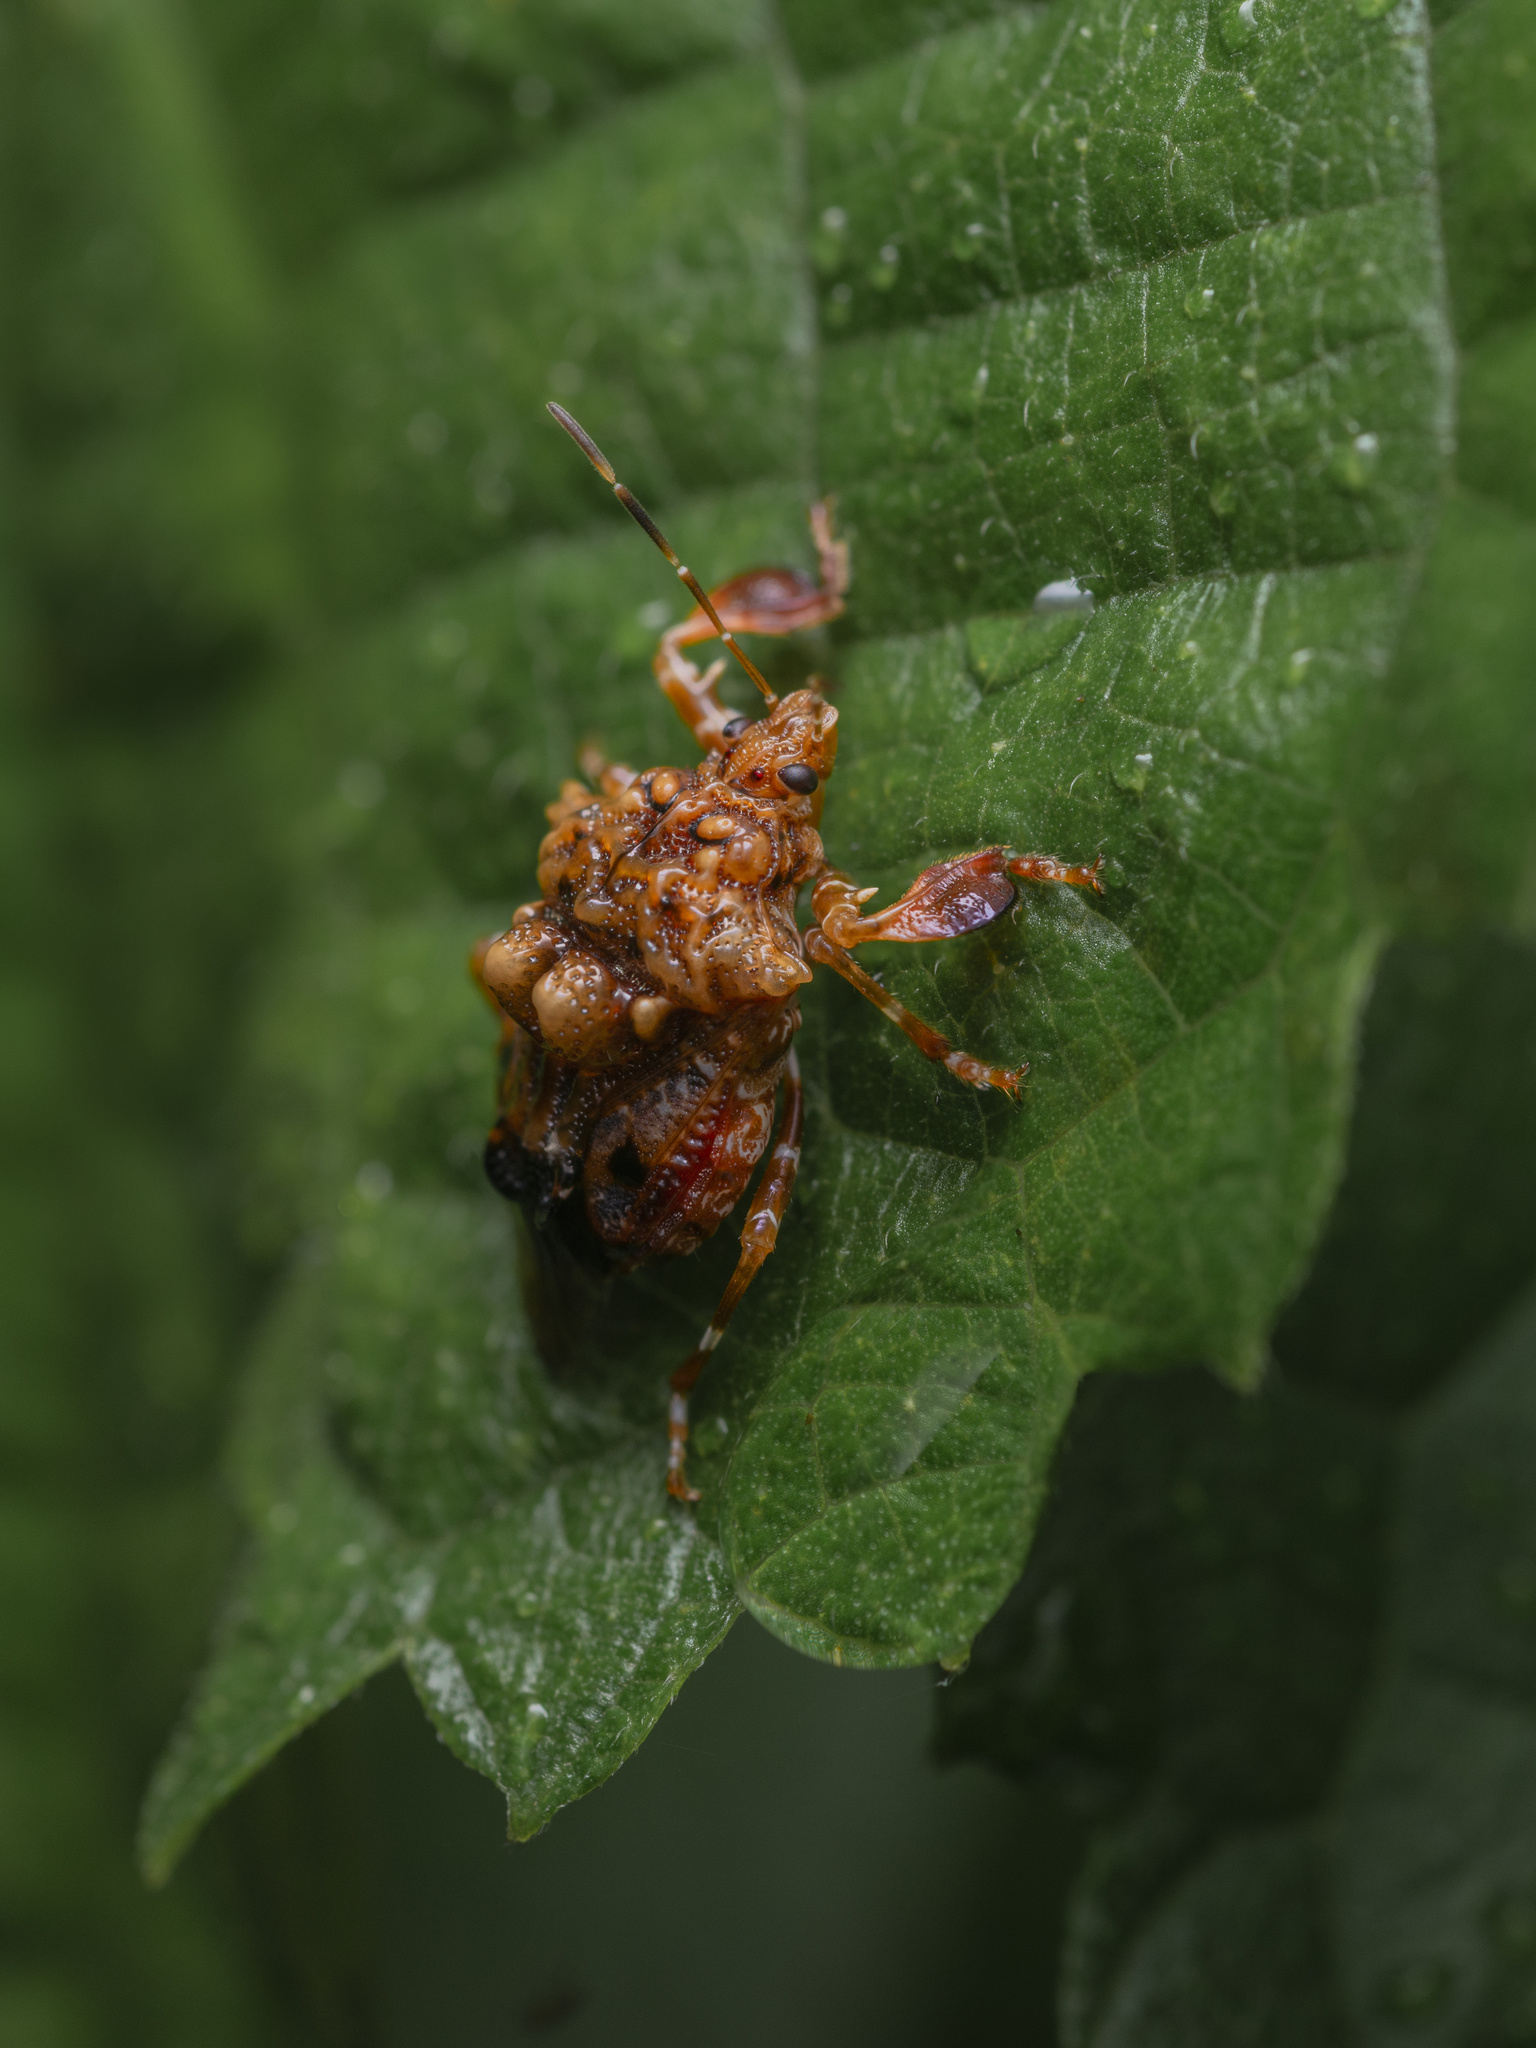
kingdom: Animalia
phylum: Arthropoda
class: Insecta
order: Hemiptera
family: Pentatomidae
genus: Cazira
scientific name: Cazira verrucosa
